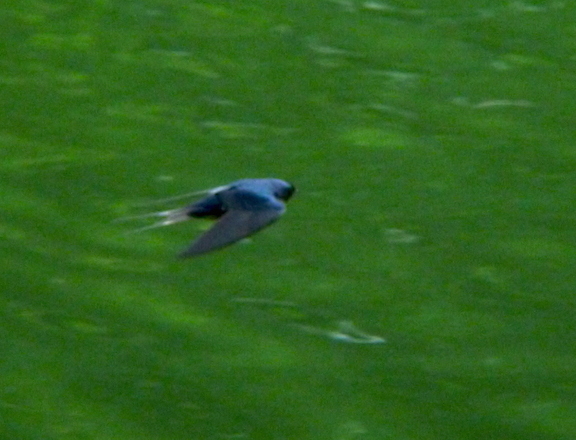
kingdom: Animalia
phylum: Chordata
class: Aves
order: Passeriformes
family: Hirundinidae
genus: Hirundo
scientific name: Hirundo rustica
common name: Barn swallow
